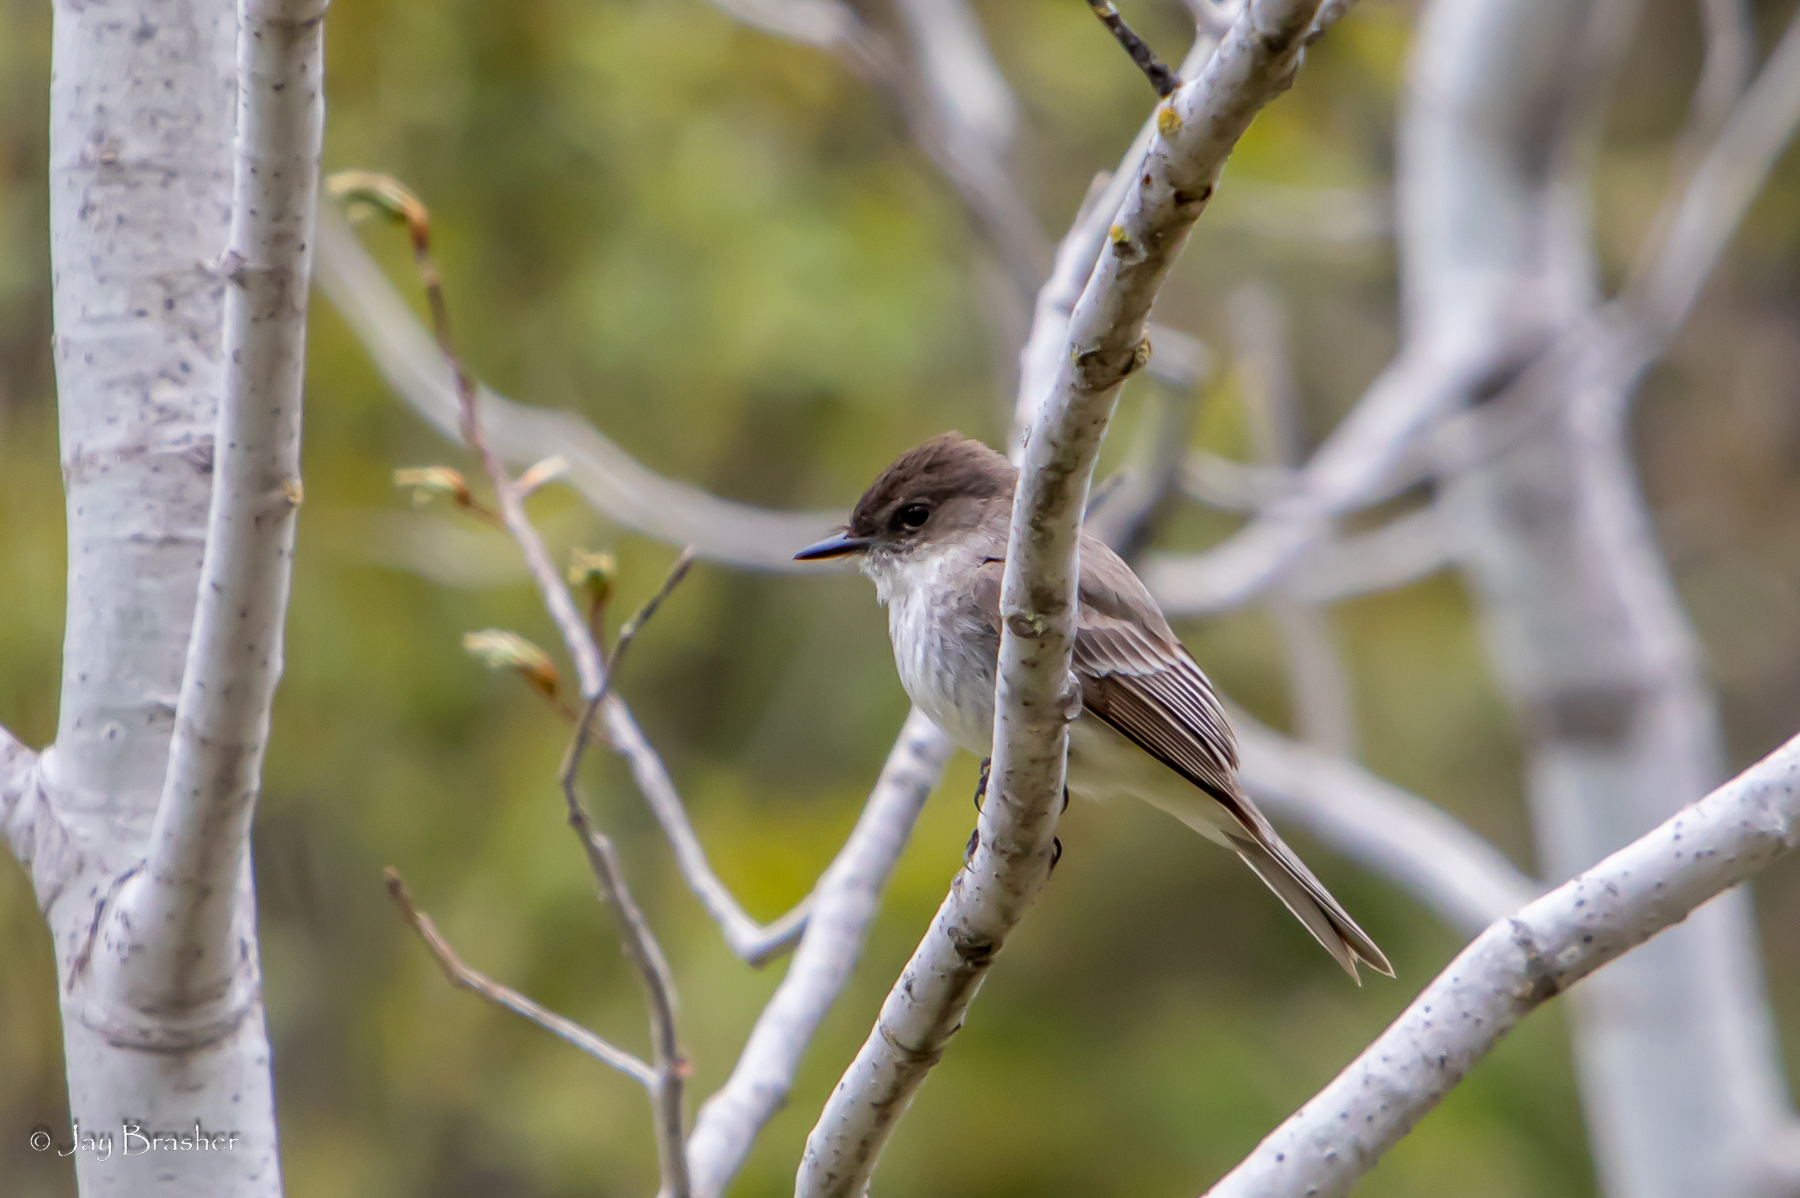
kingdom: Animalia
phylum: Chordata
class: Aves
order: Passeriformes
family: Tyrannidae
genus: Sayornis
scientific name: Sayornis phoebe
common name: Eastern phoebe
